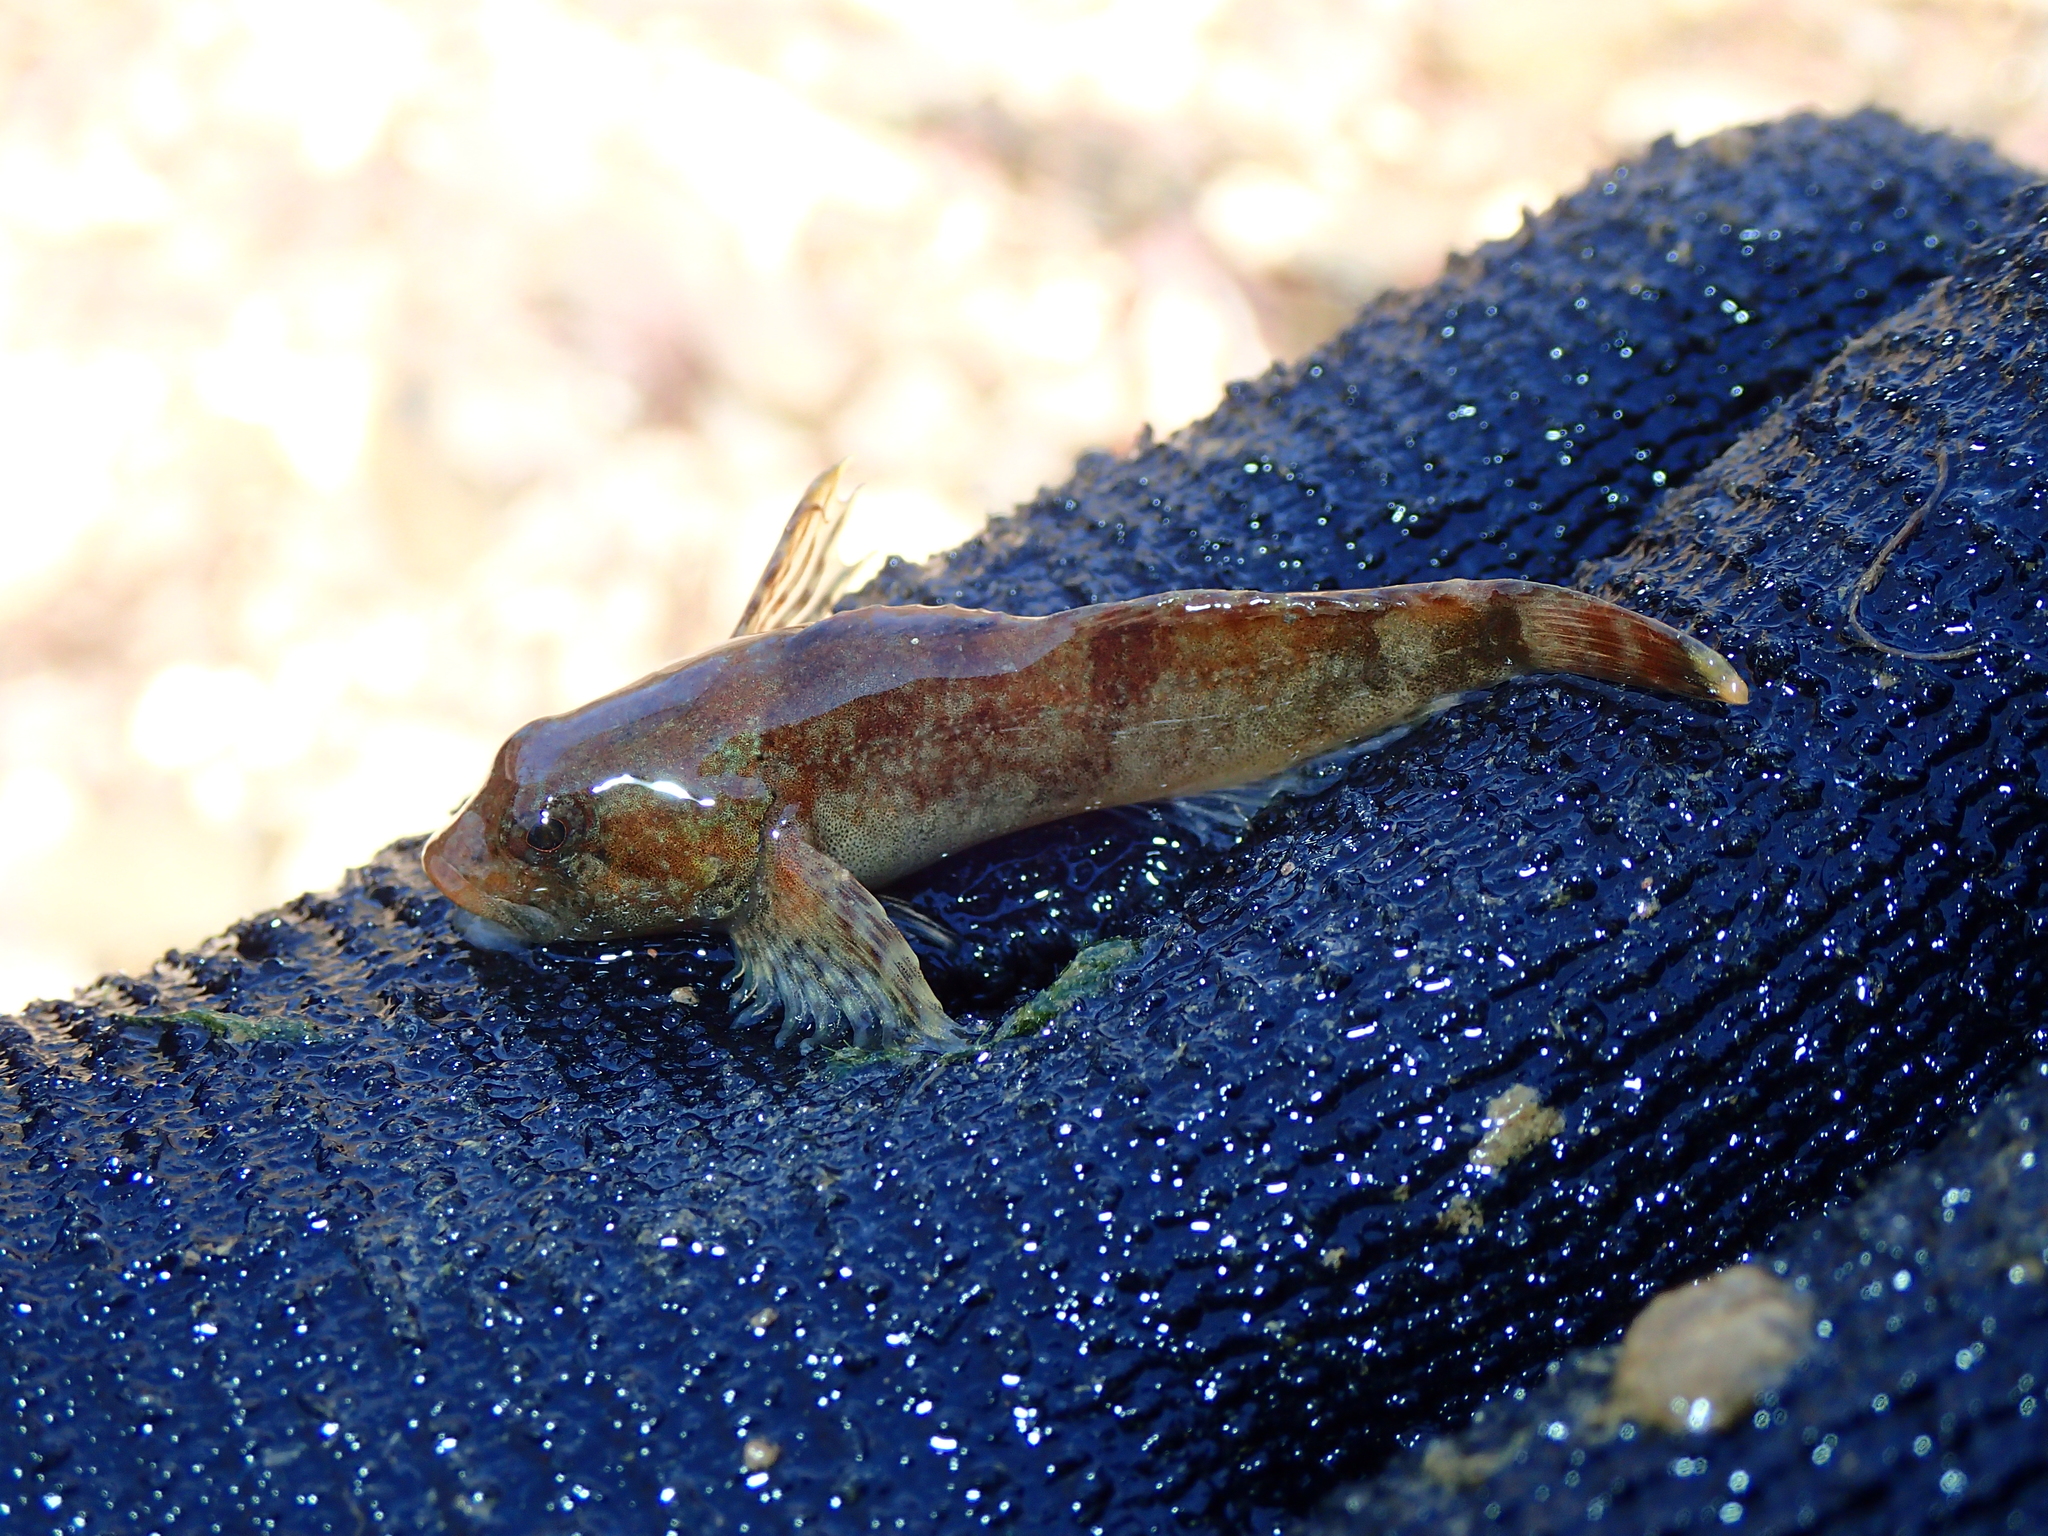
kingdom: Animalia
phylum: Chordata
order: Scorpaeniformes
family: Cottidae
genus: Cottus
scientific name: Cottus caeruleomentum
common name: Blue ridge sculpin
